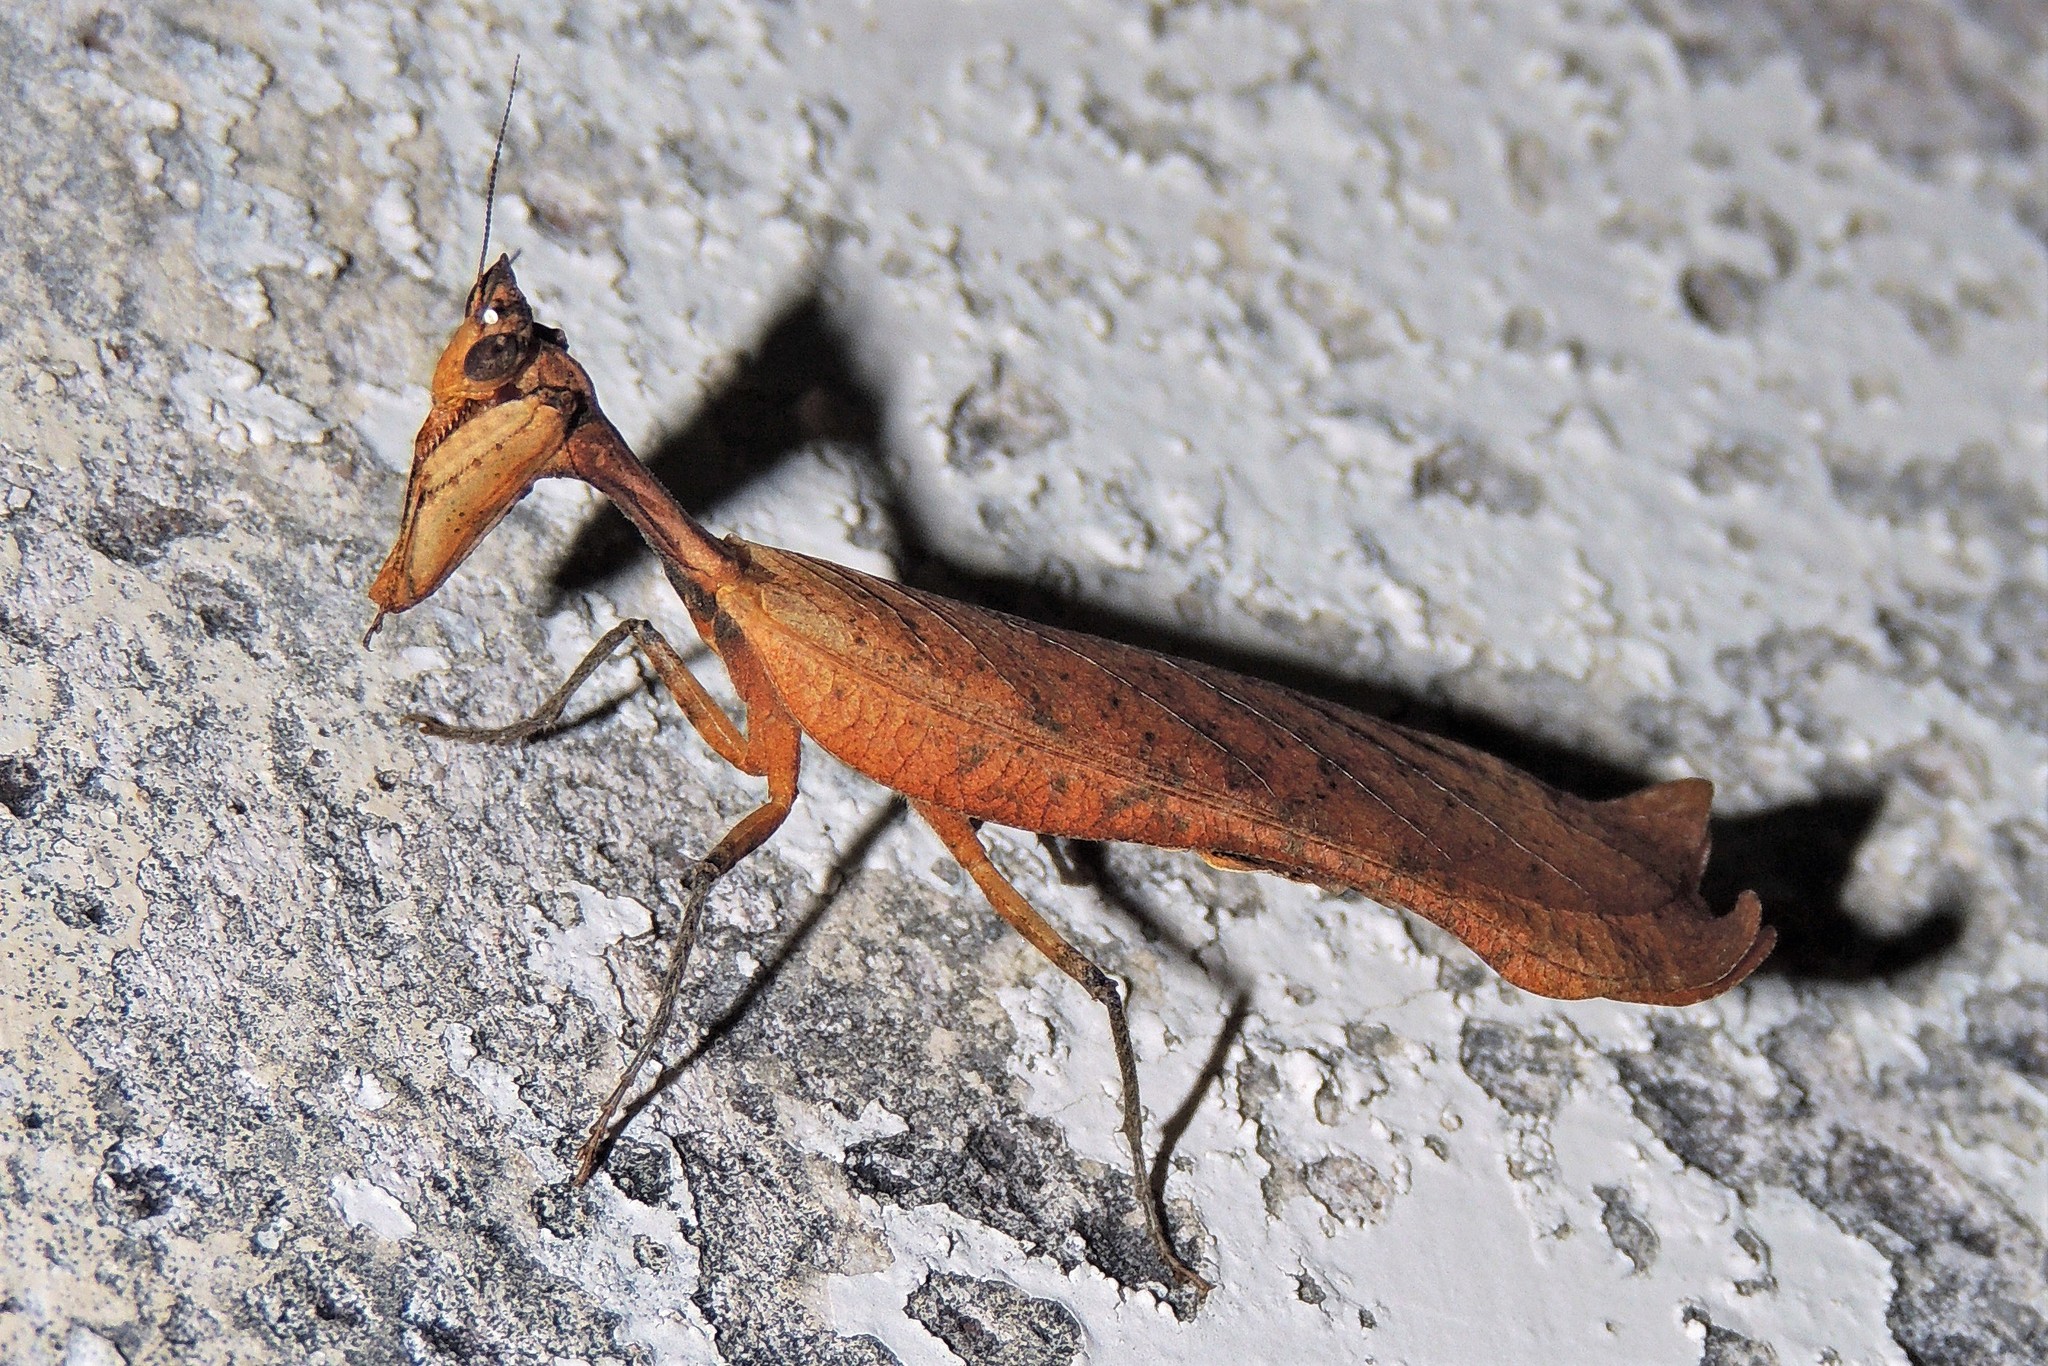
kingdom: Animalia
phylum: Arthropoda
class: Insecta
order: Mantodea
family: Acanthopidae
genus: Decimiana
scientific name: Decimiana rehni
